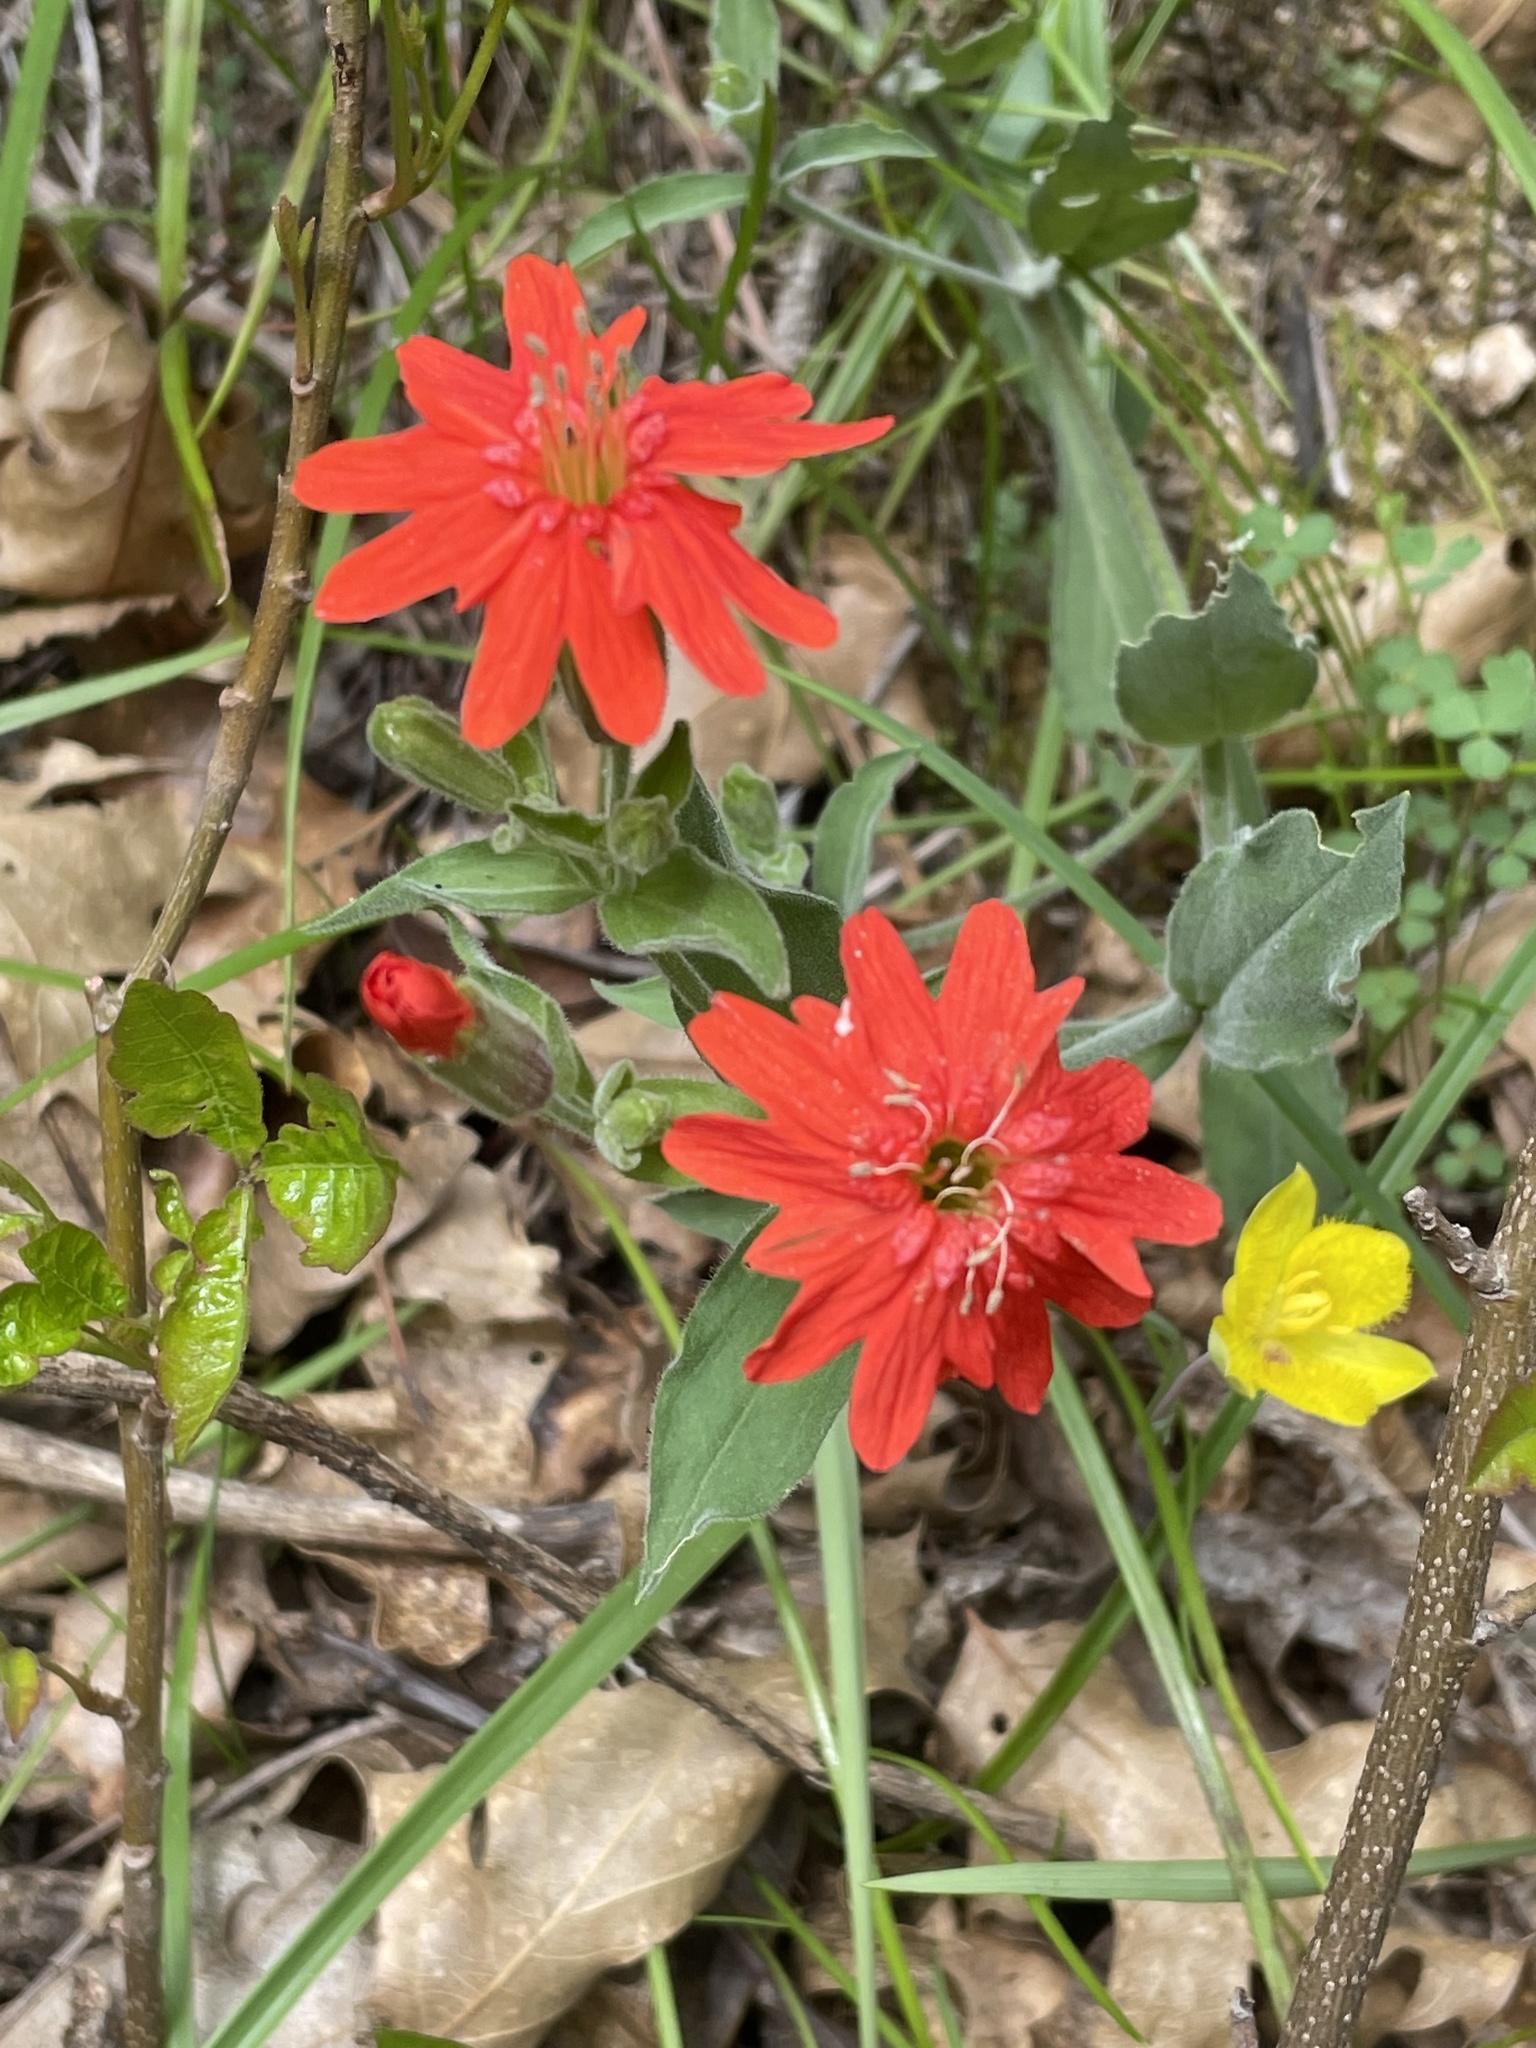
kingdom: Plantae
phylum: Tracheophyta
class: Magnoliopsida
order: Caryophyllales
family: Caryophyllaceae
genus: Silene
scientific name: Silene laciniata
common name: Indian-pink
